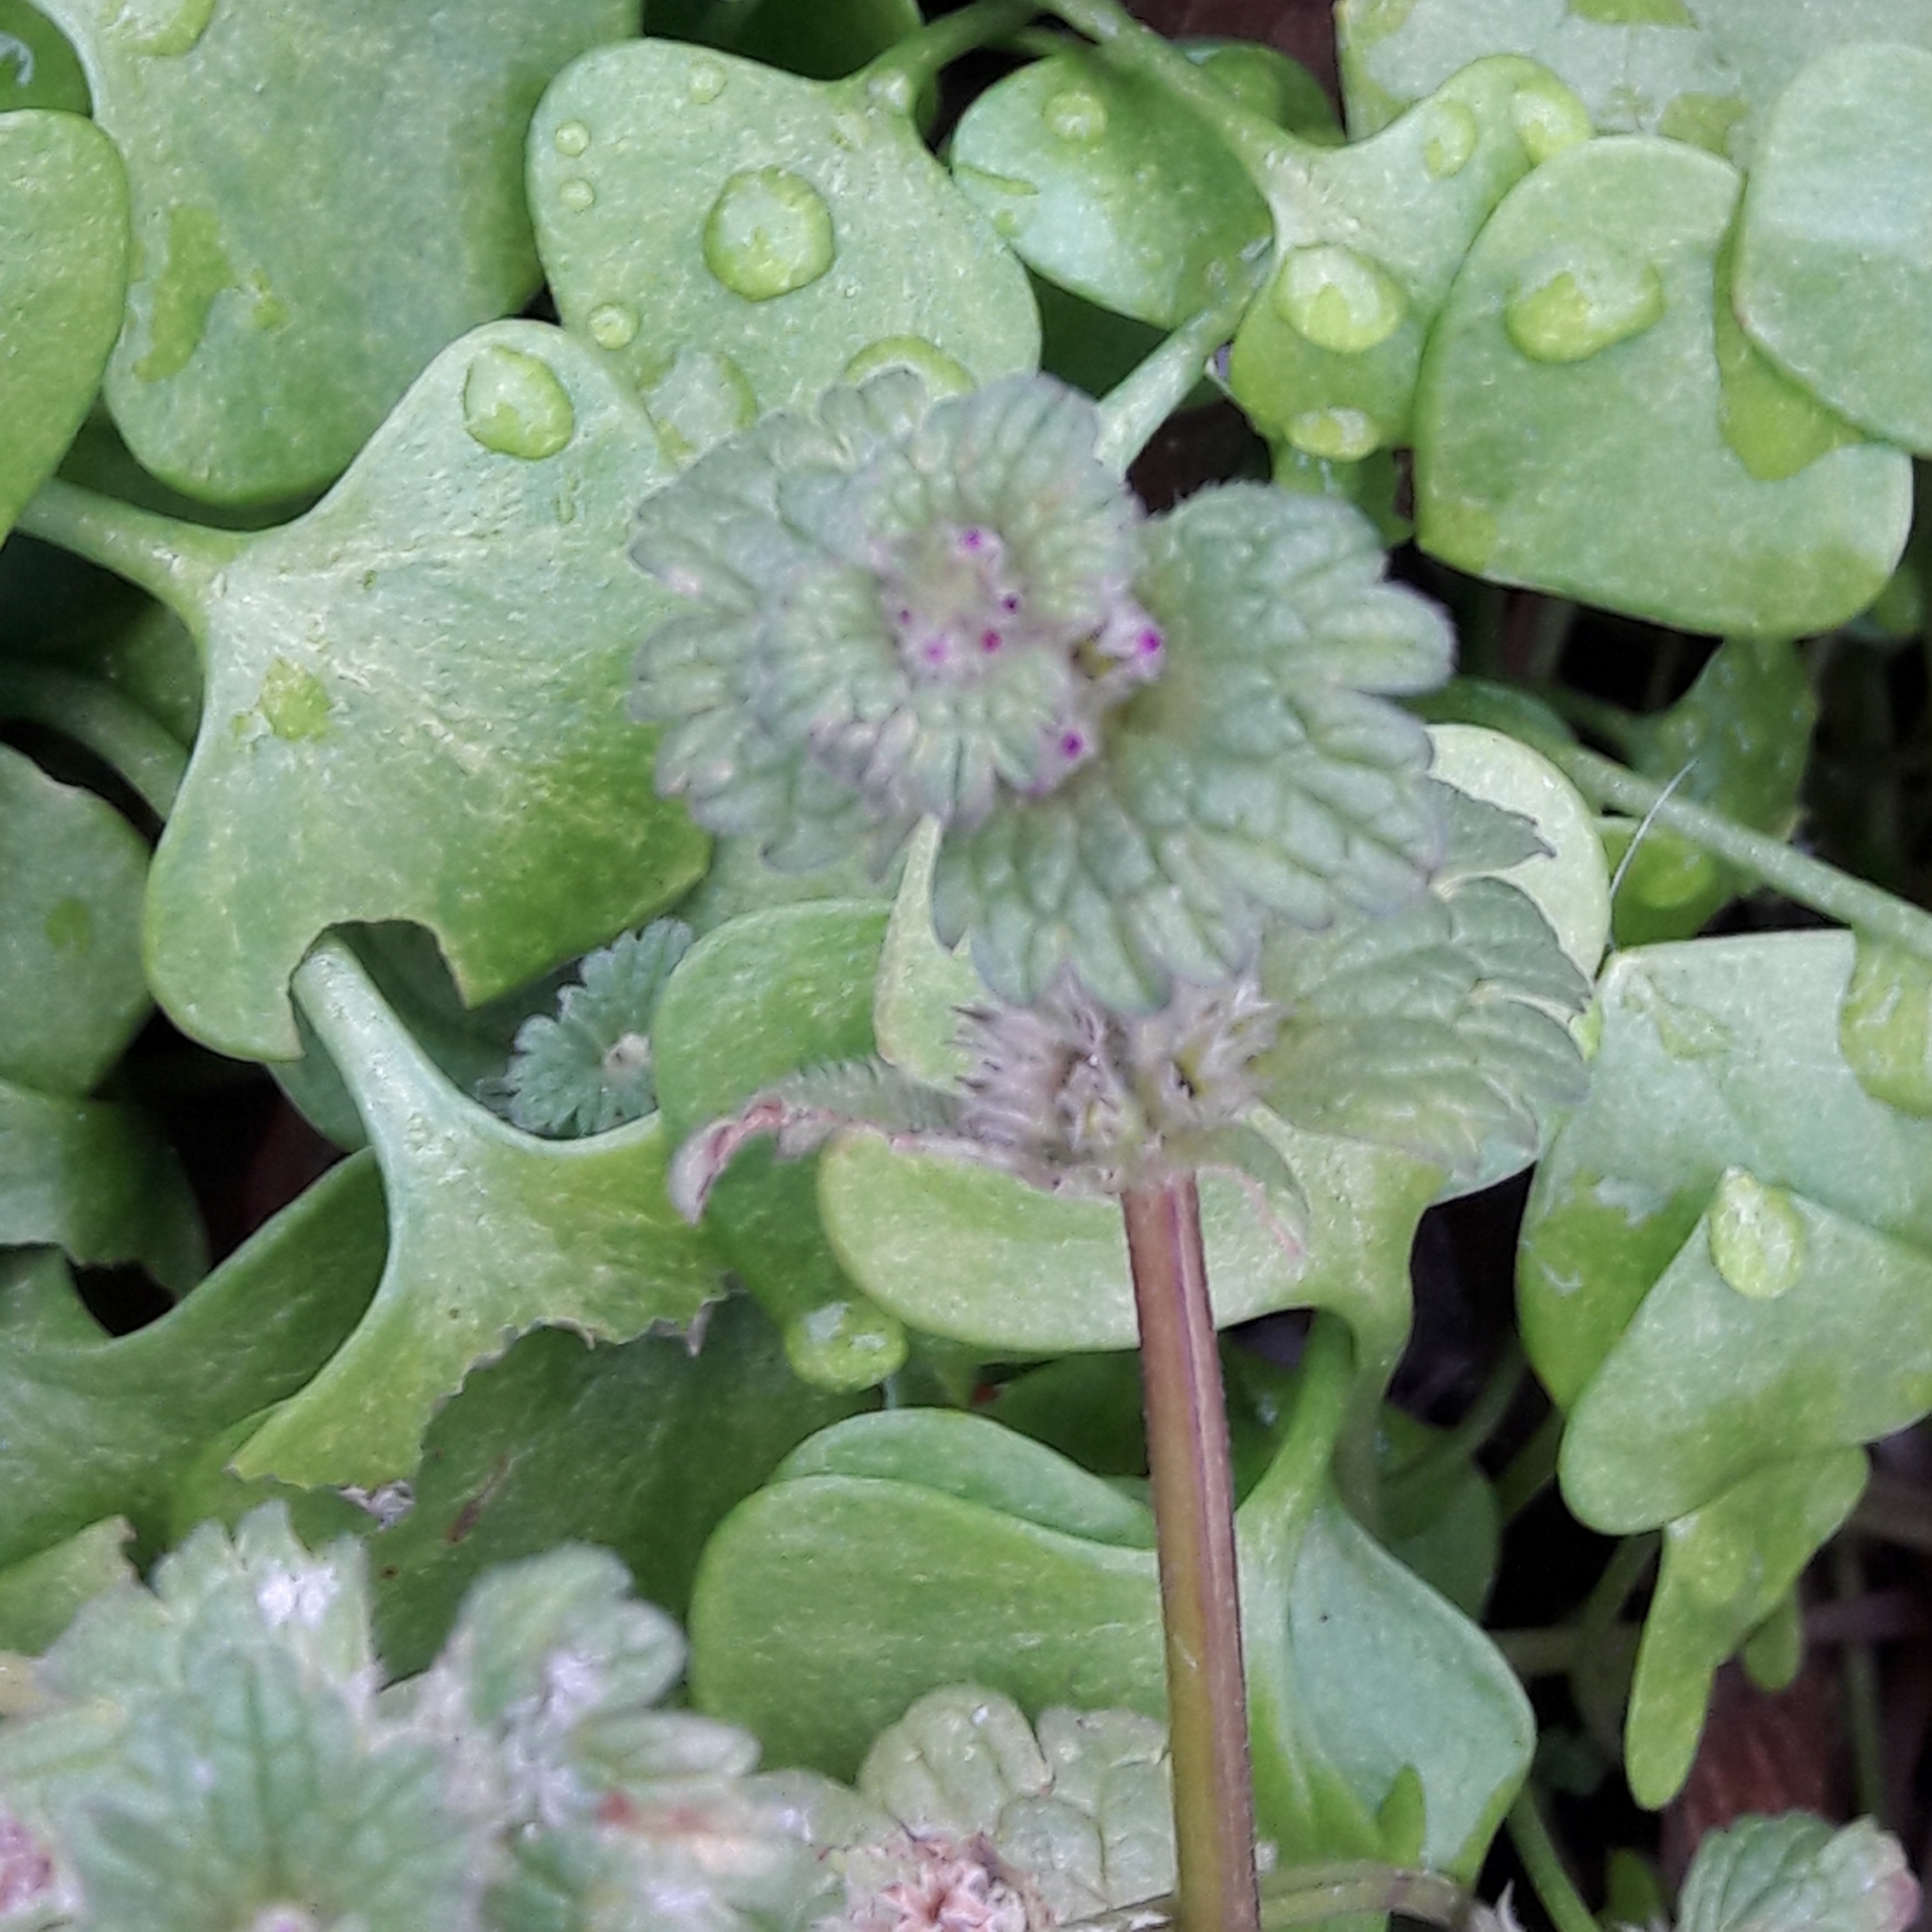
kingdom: Plantae
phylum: Tracheophyta
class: Magnoliopsida
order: Lamiales
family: Lamiaceae
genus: Lamium
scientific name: Lamium amplexicaule
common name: Henbit dead-nettle
